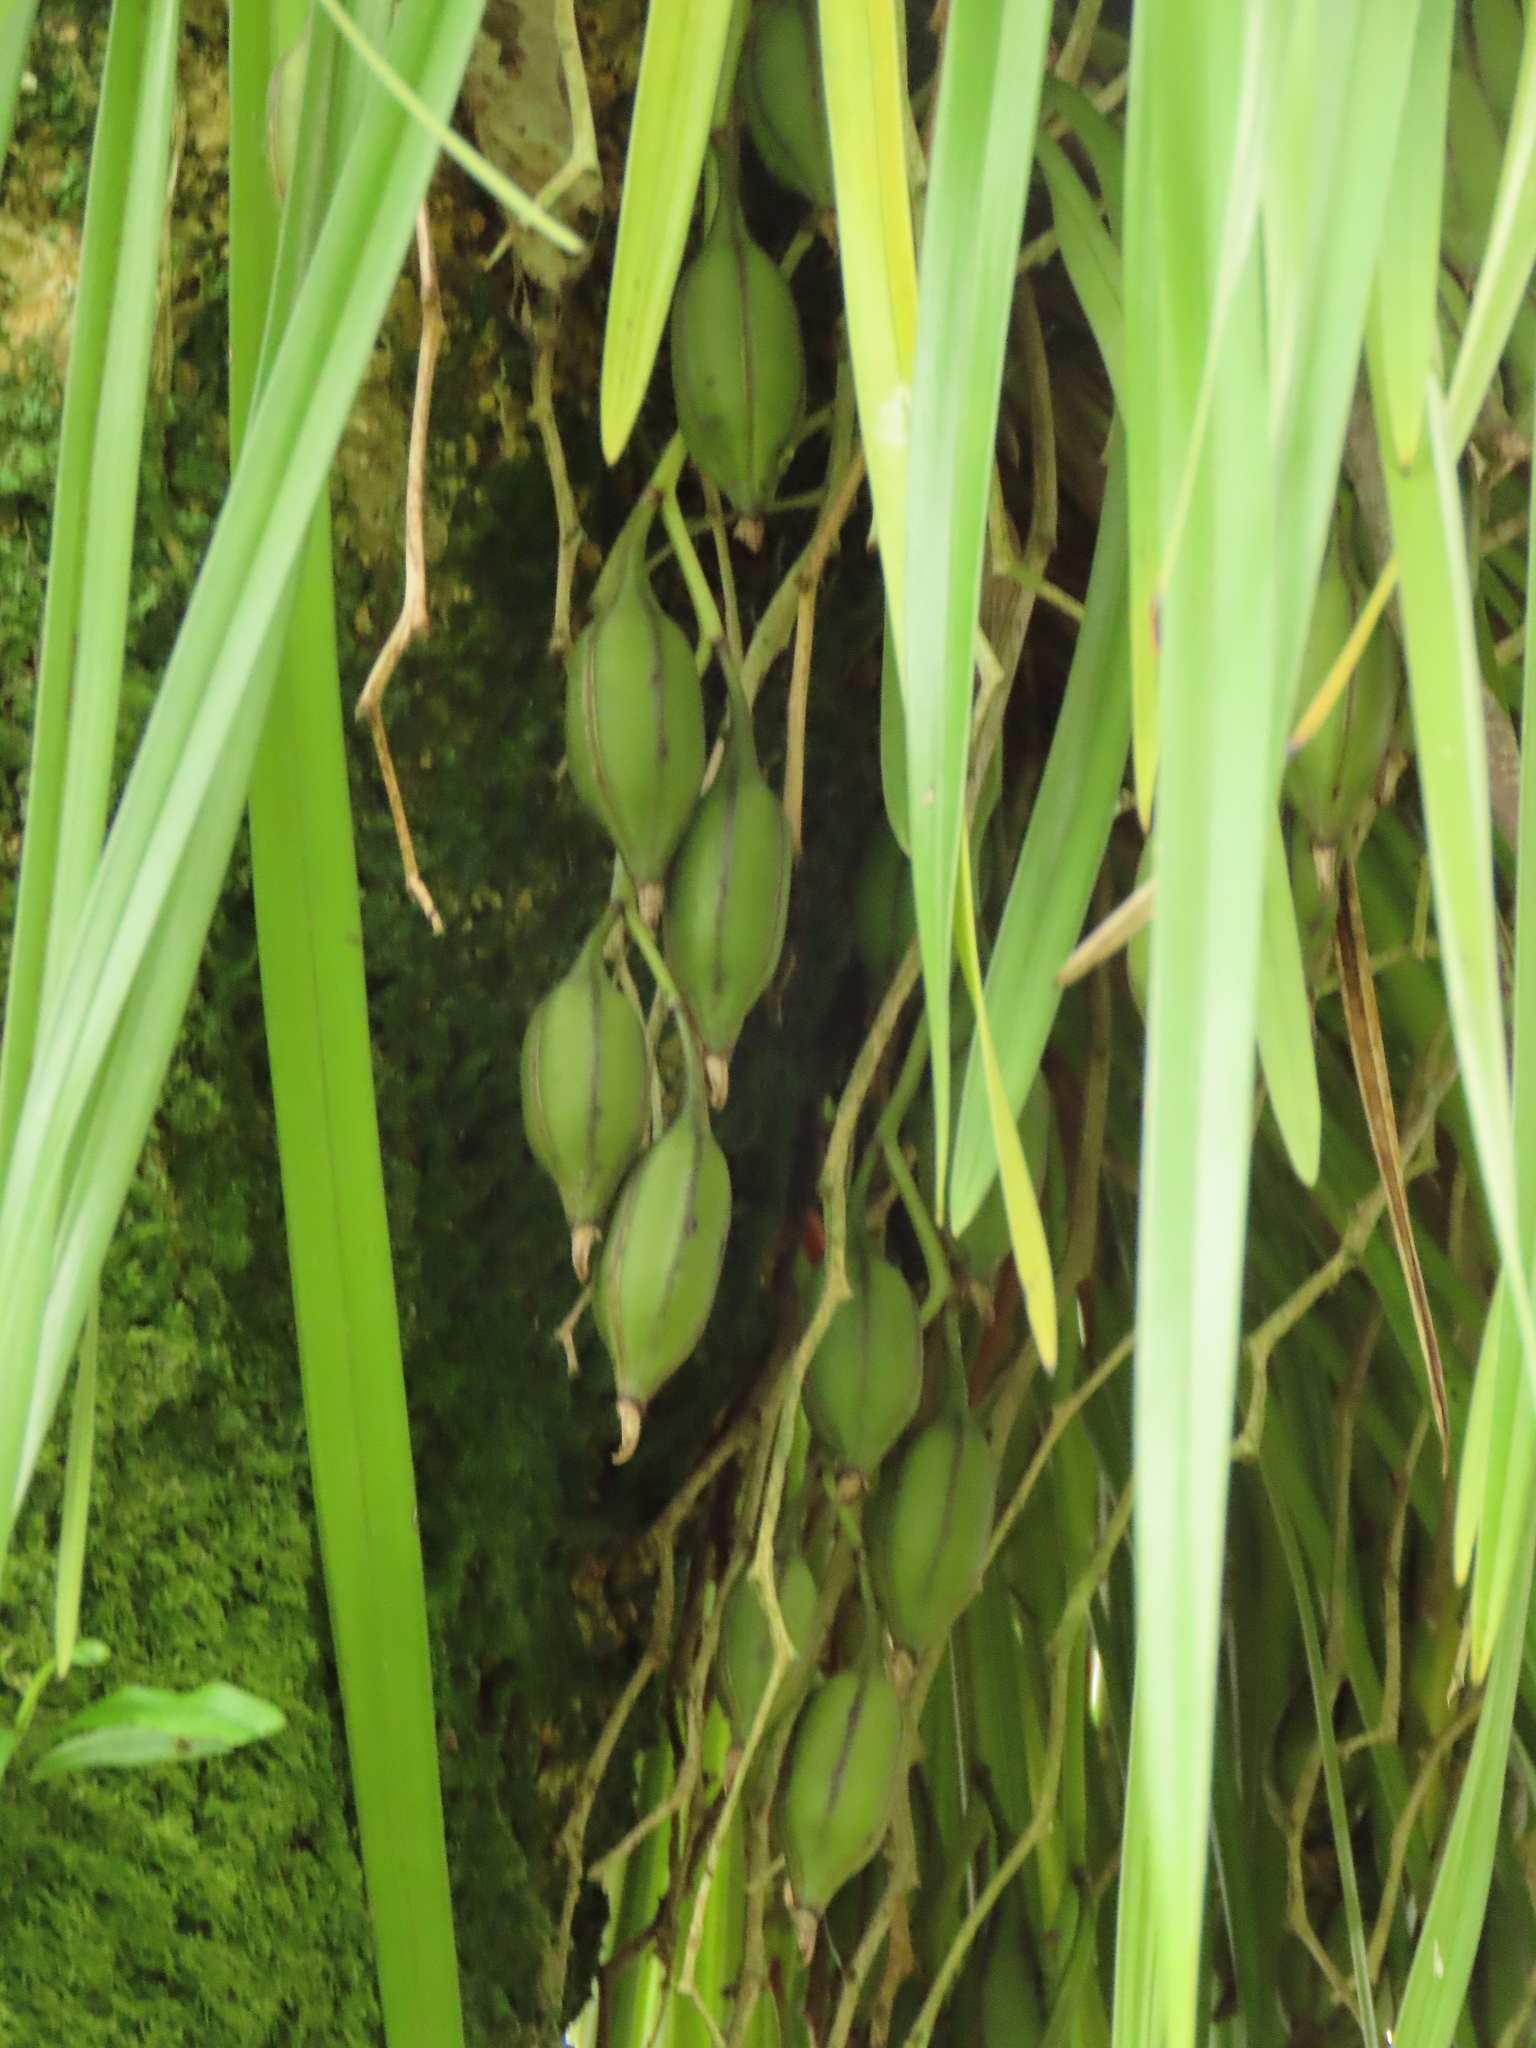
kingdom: Plantae
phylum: Tracheophyta
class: Liliopsida
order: Asparagales
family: Orchidaceae
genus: Cymbidium
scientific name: Cymbidium dayanum
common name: Orchid
